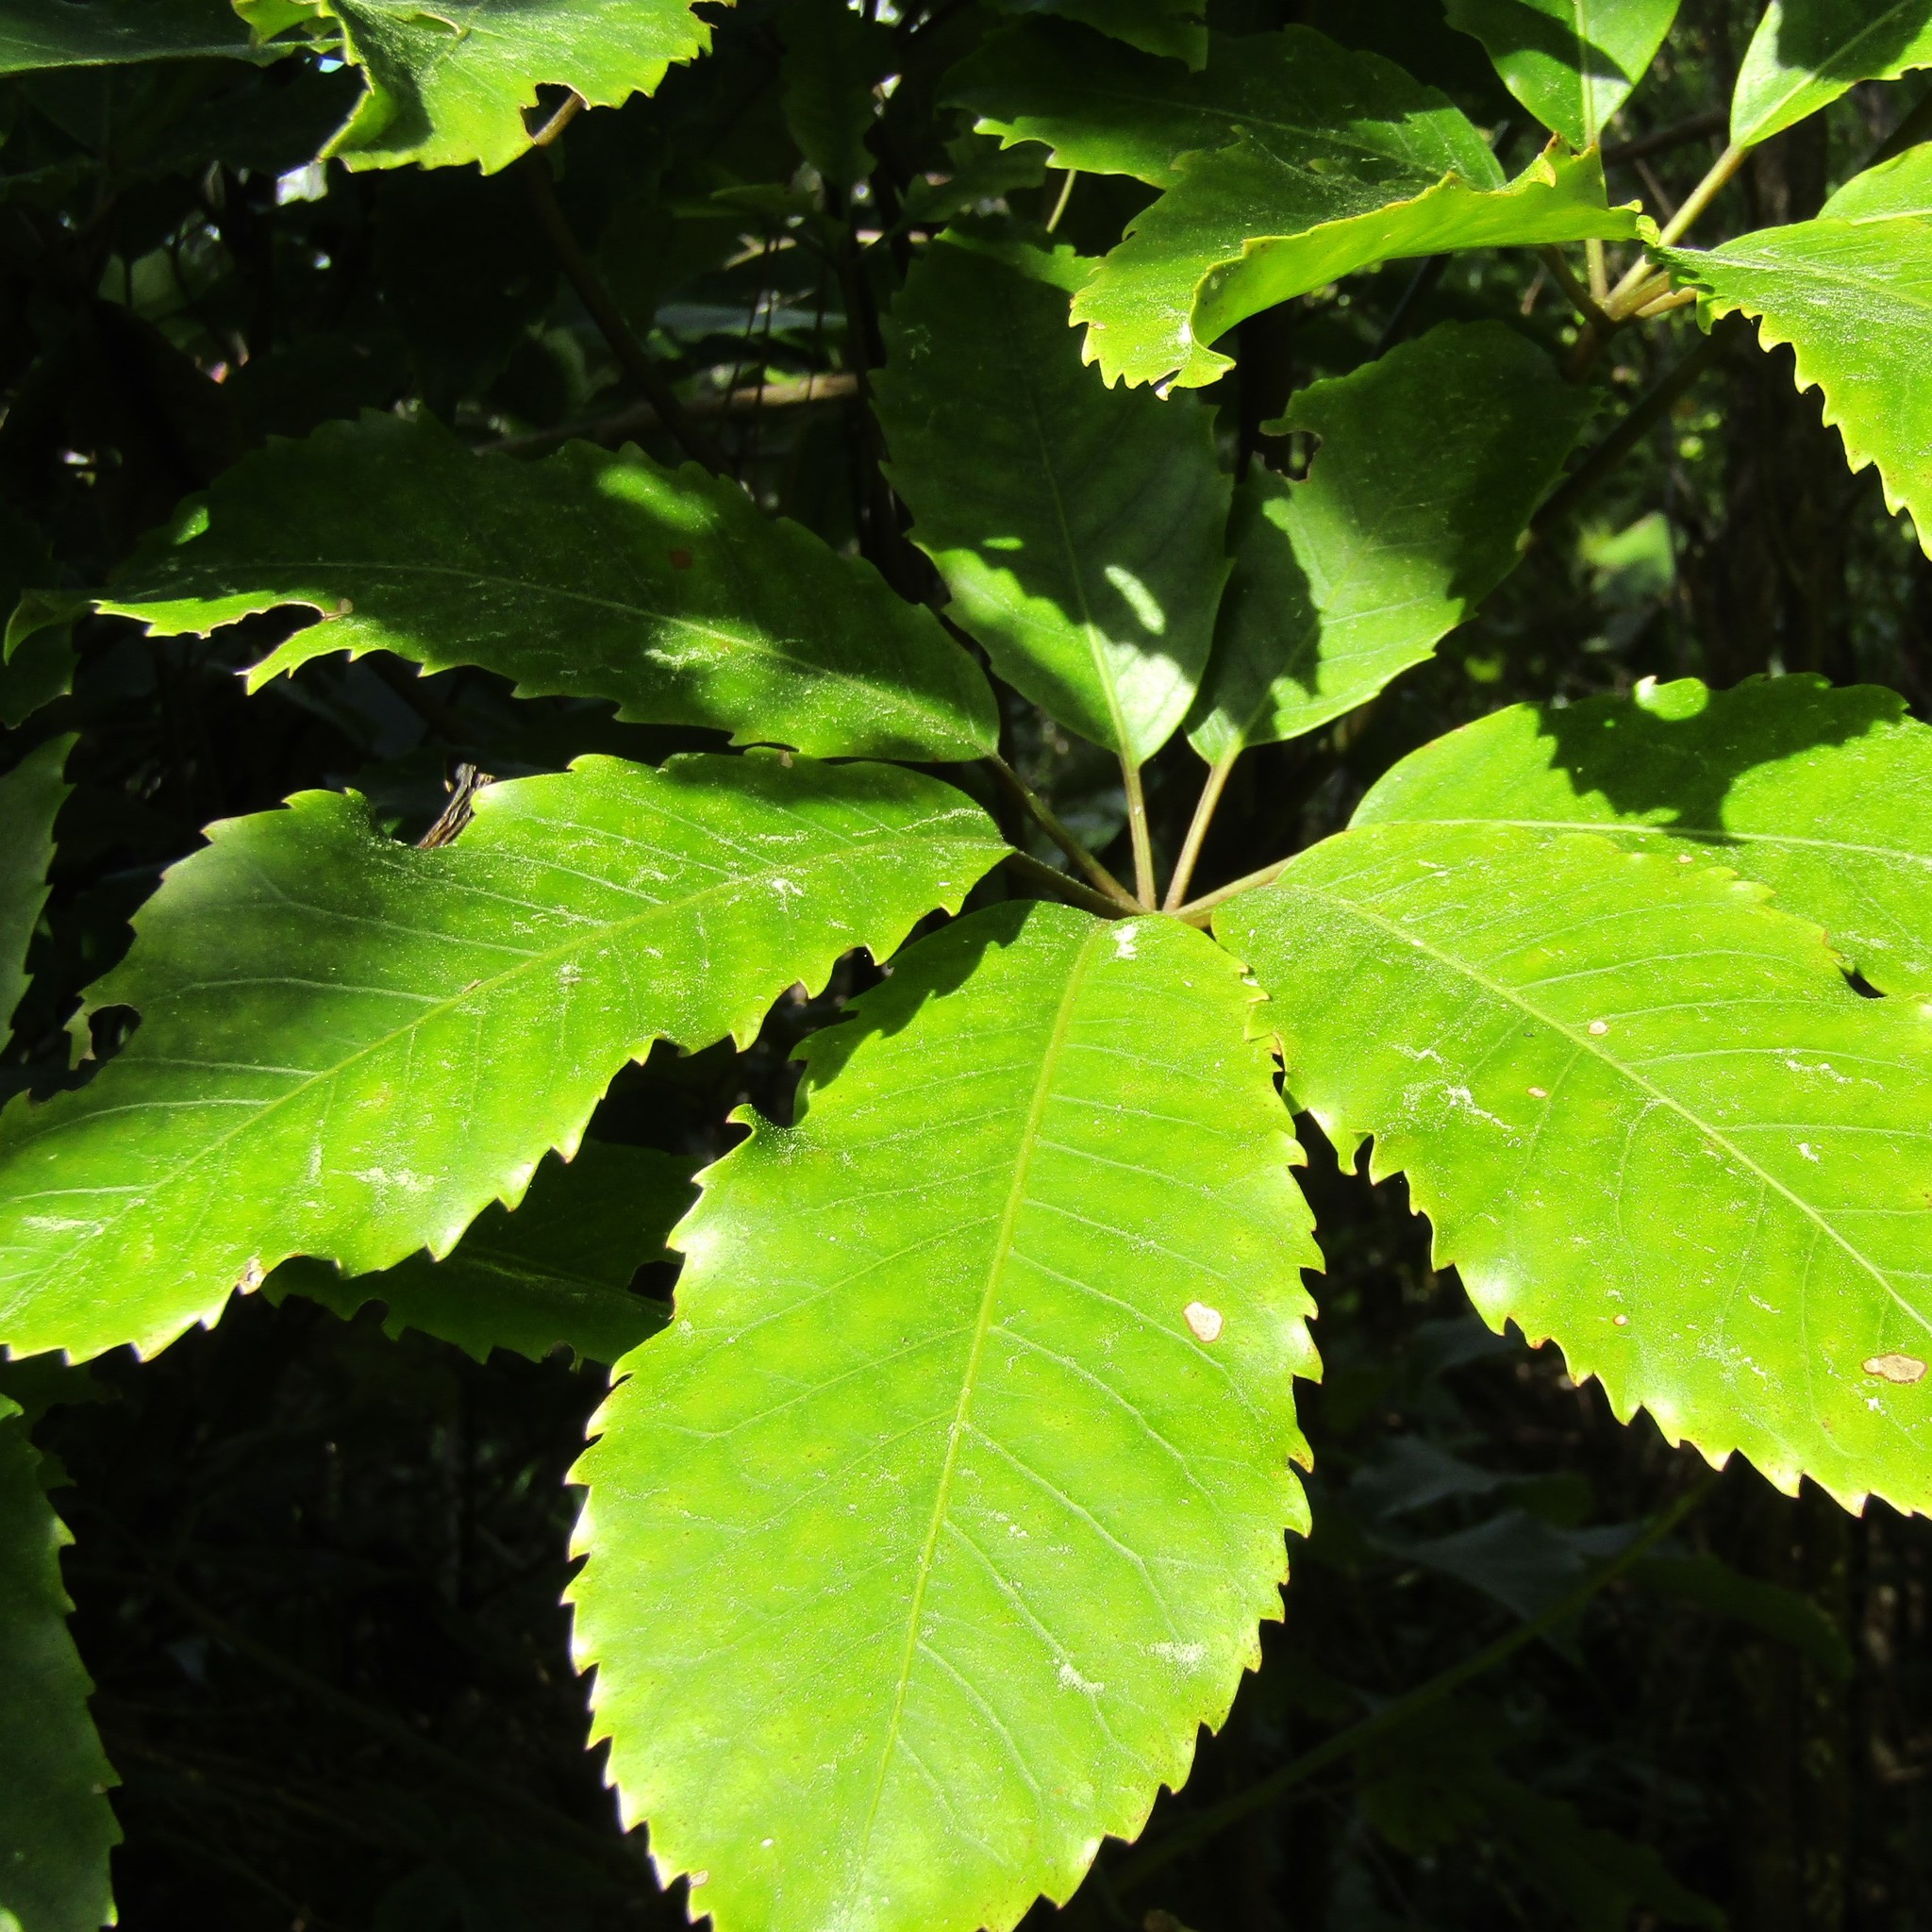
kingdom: Plantae
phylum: Tracheophyta
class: Magnoliopsida
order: Apiales
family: Araliaceae
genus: Neopanax
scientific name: Neopanax arboreus
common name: Five-fingers
